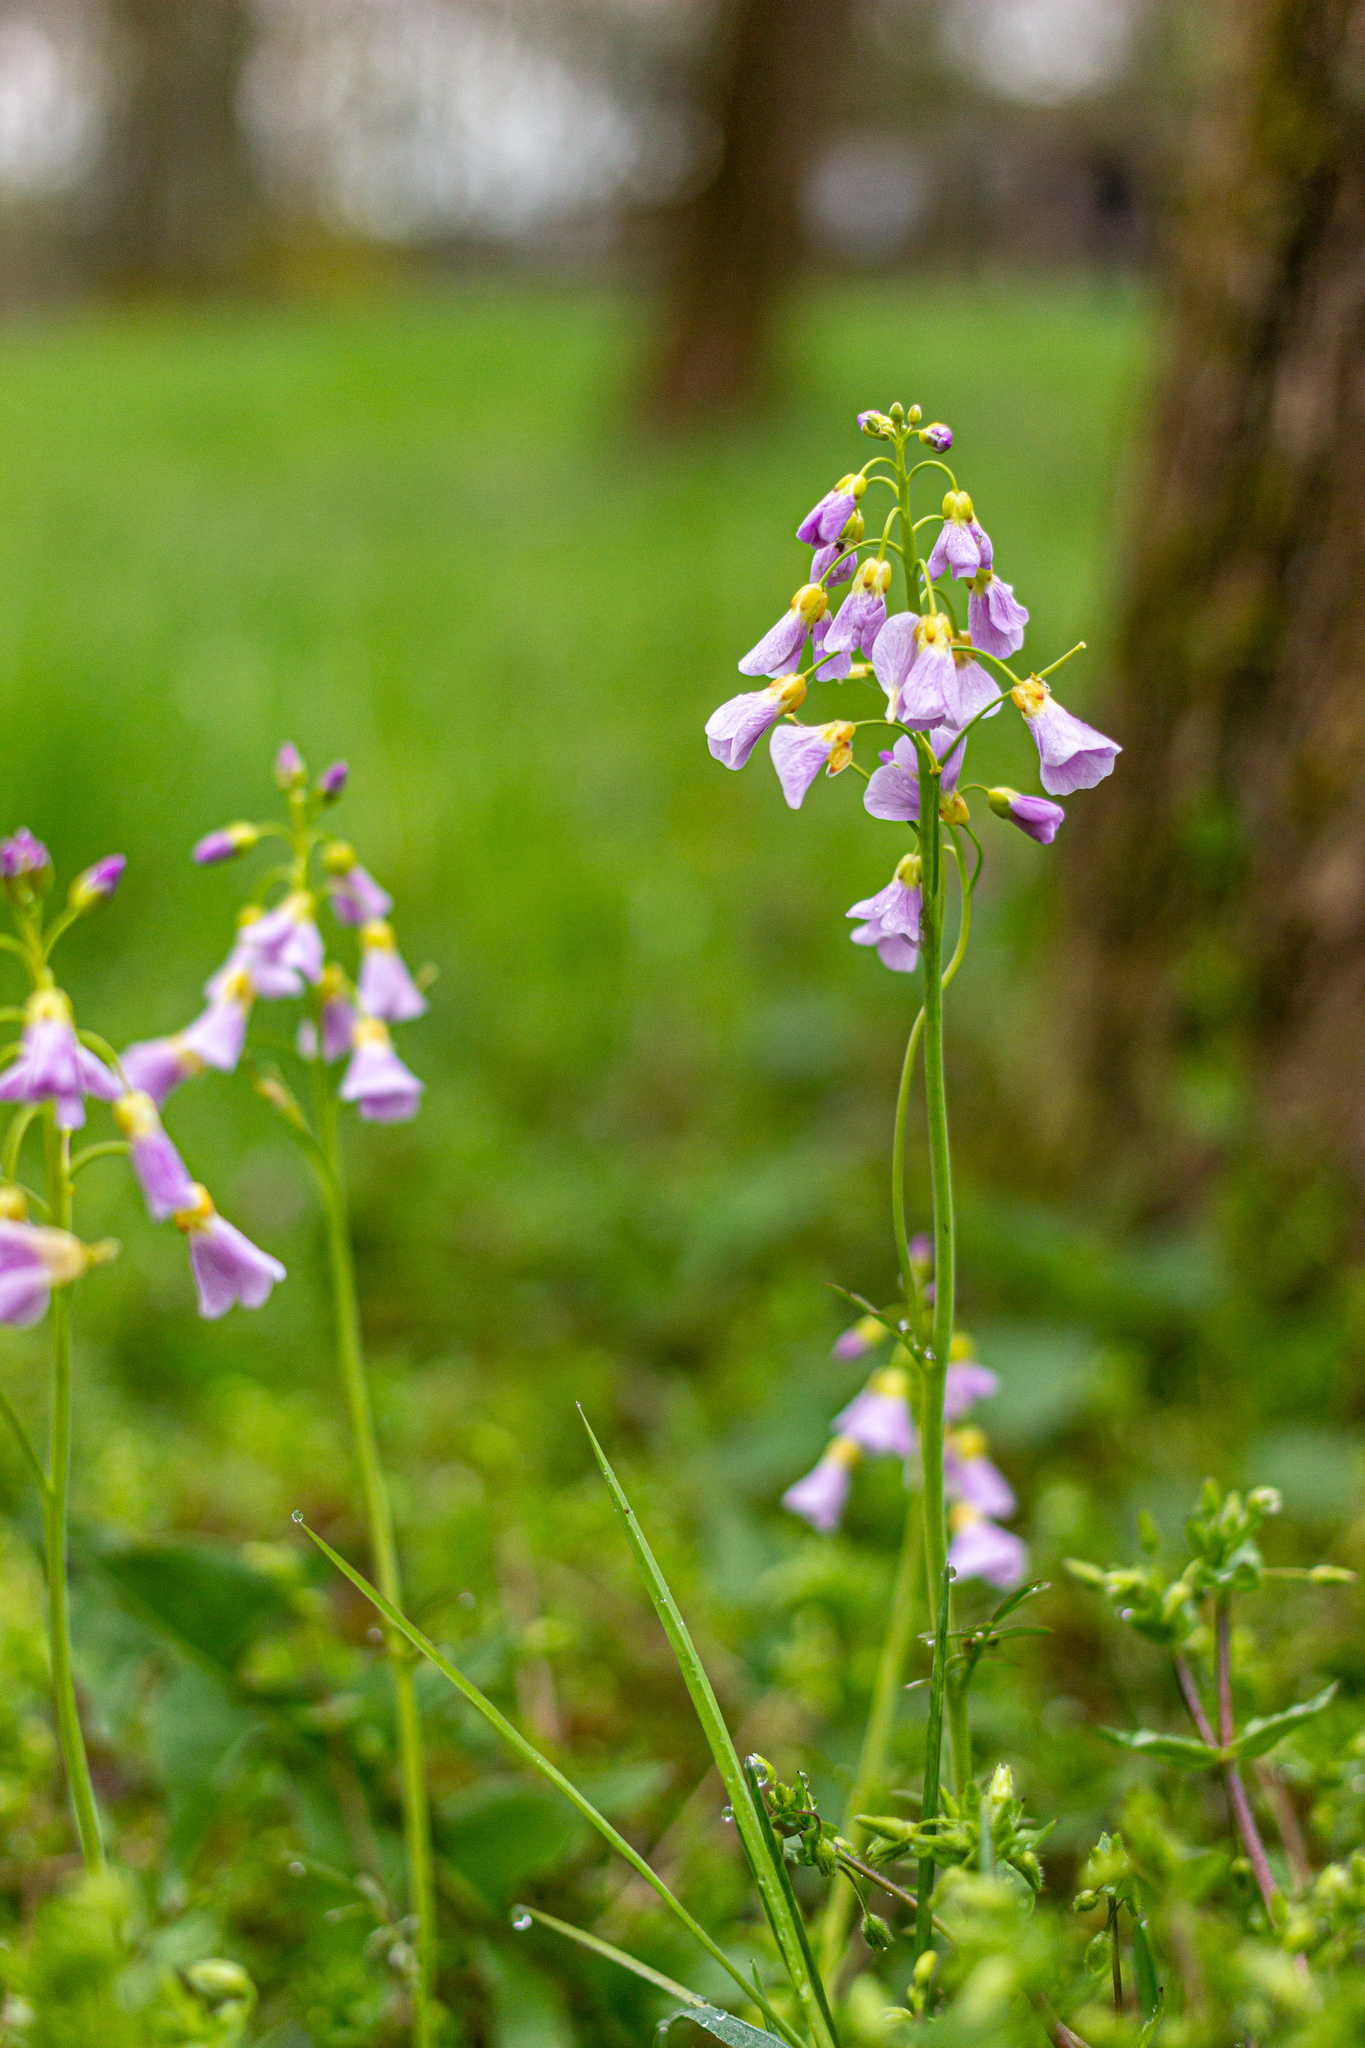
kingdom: Plantae
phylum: Tracheophyta
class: Magnoliopsida
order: Brassicales
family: Brassicaceae
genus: Cardamine
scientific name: Cardamine pratensis
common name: Cuckoo flower
